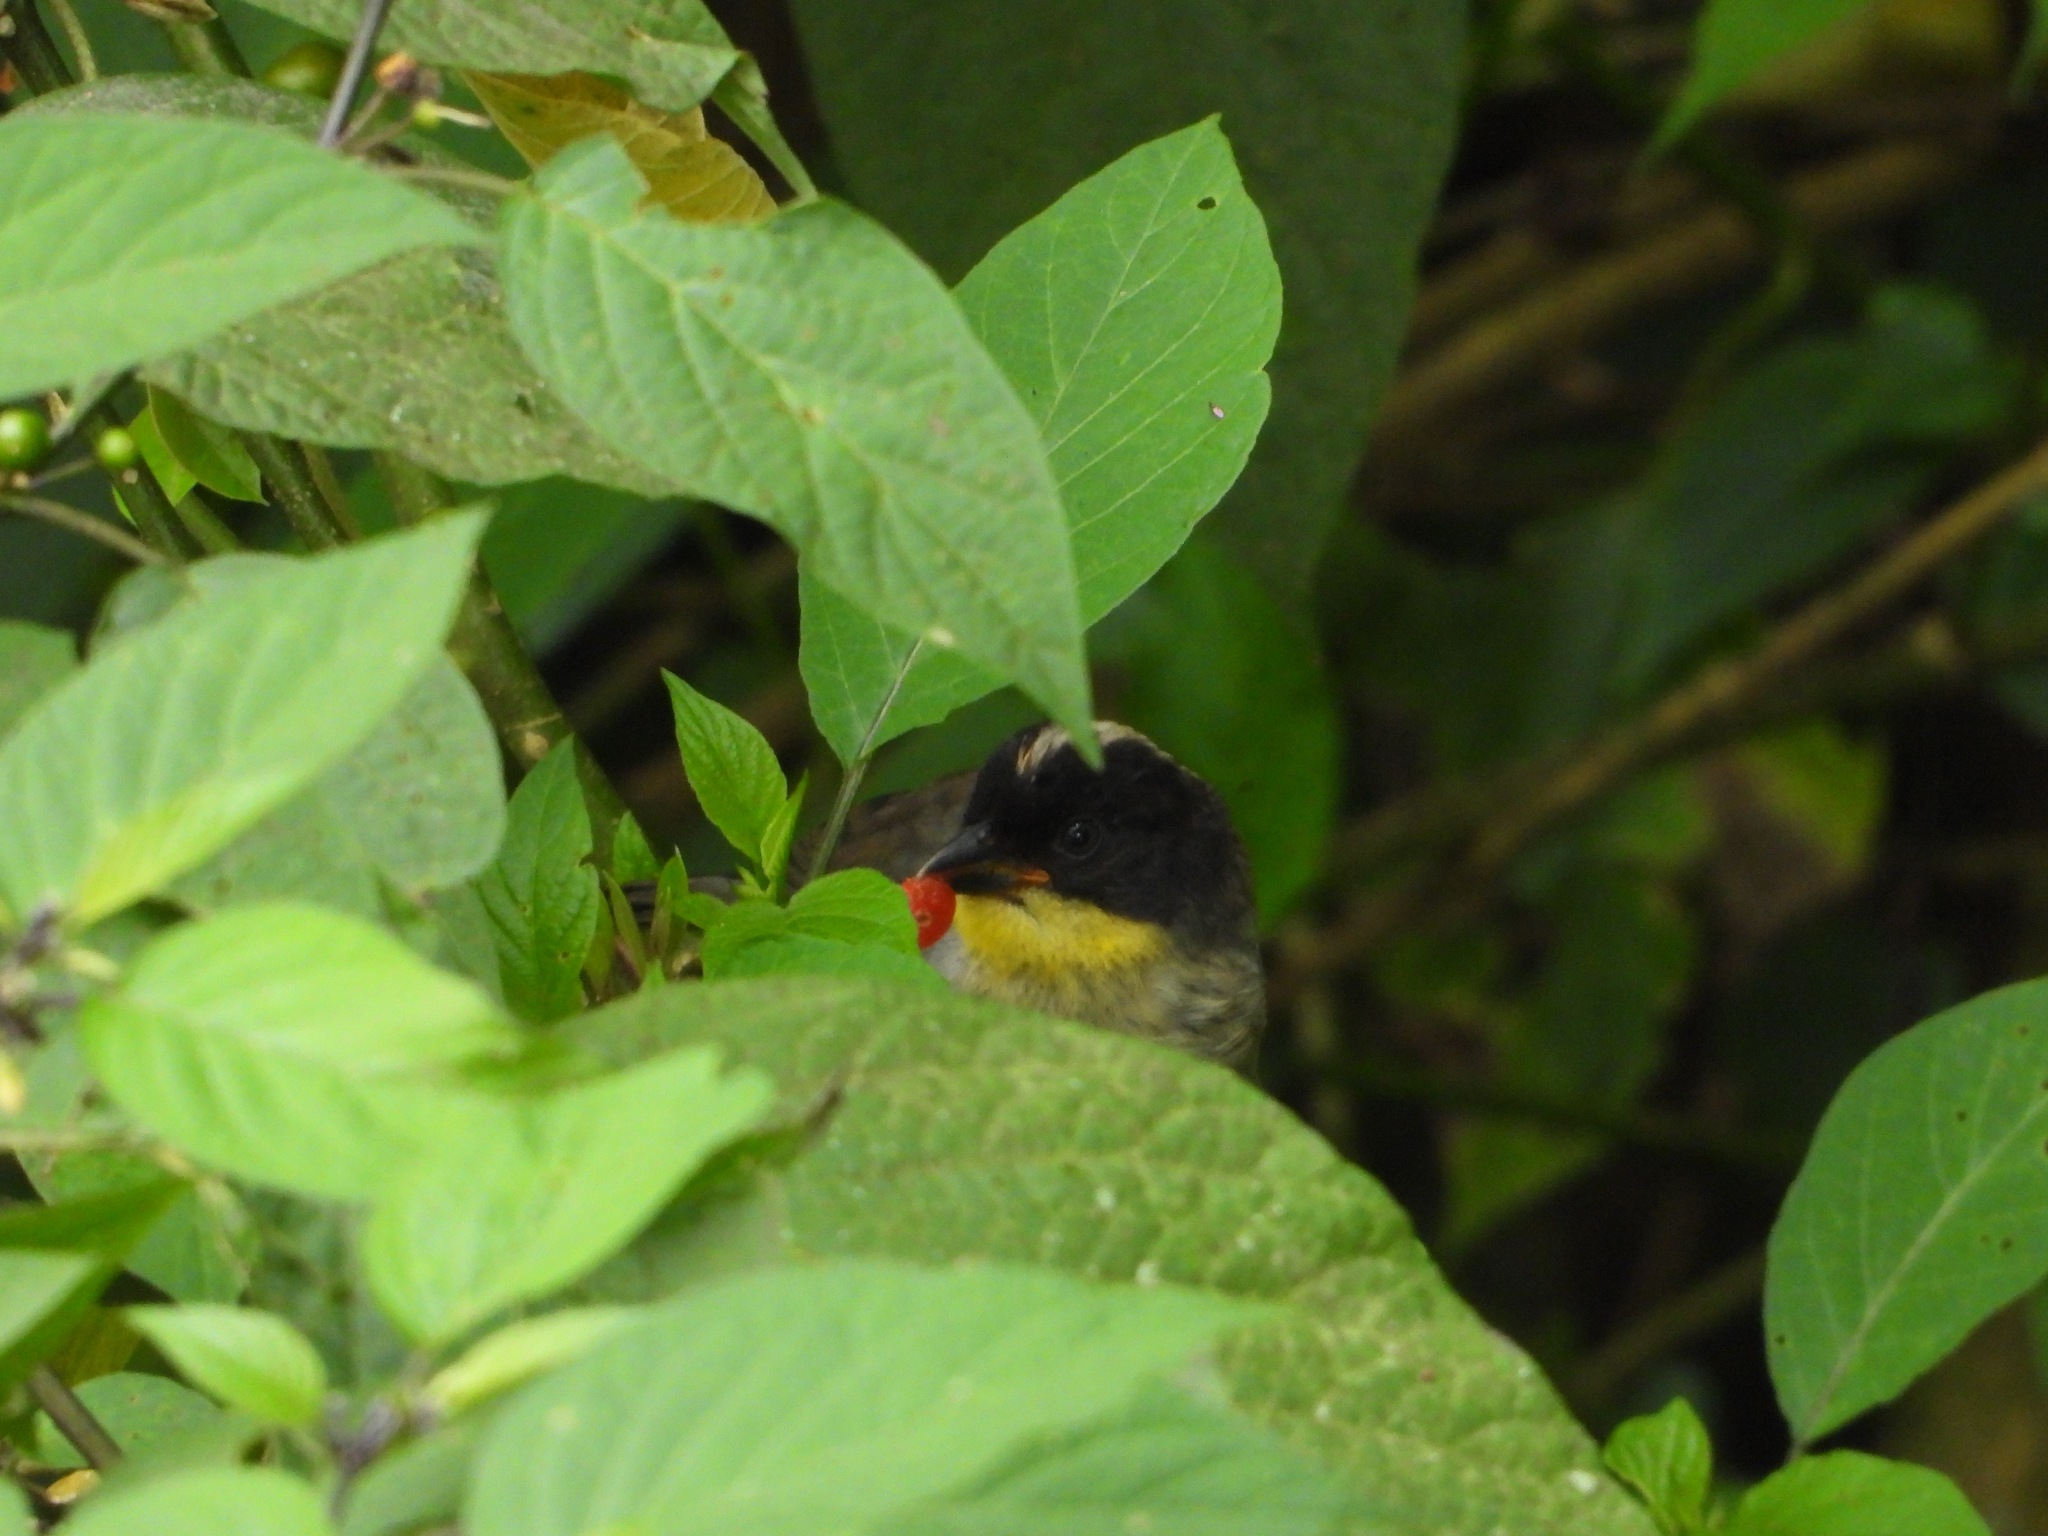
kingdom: Animalia
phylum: Chordata
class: Aves
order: Passeriformes
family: Passerellidae
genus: Atlapetes
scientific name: Atlapetes albinucha
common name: White-naped brush-finch
